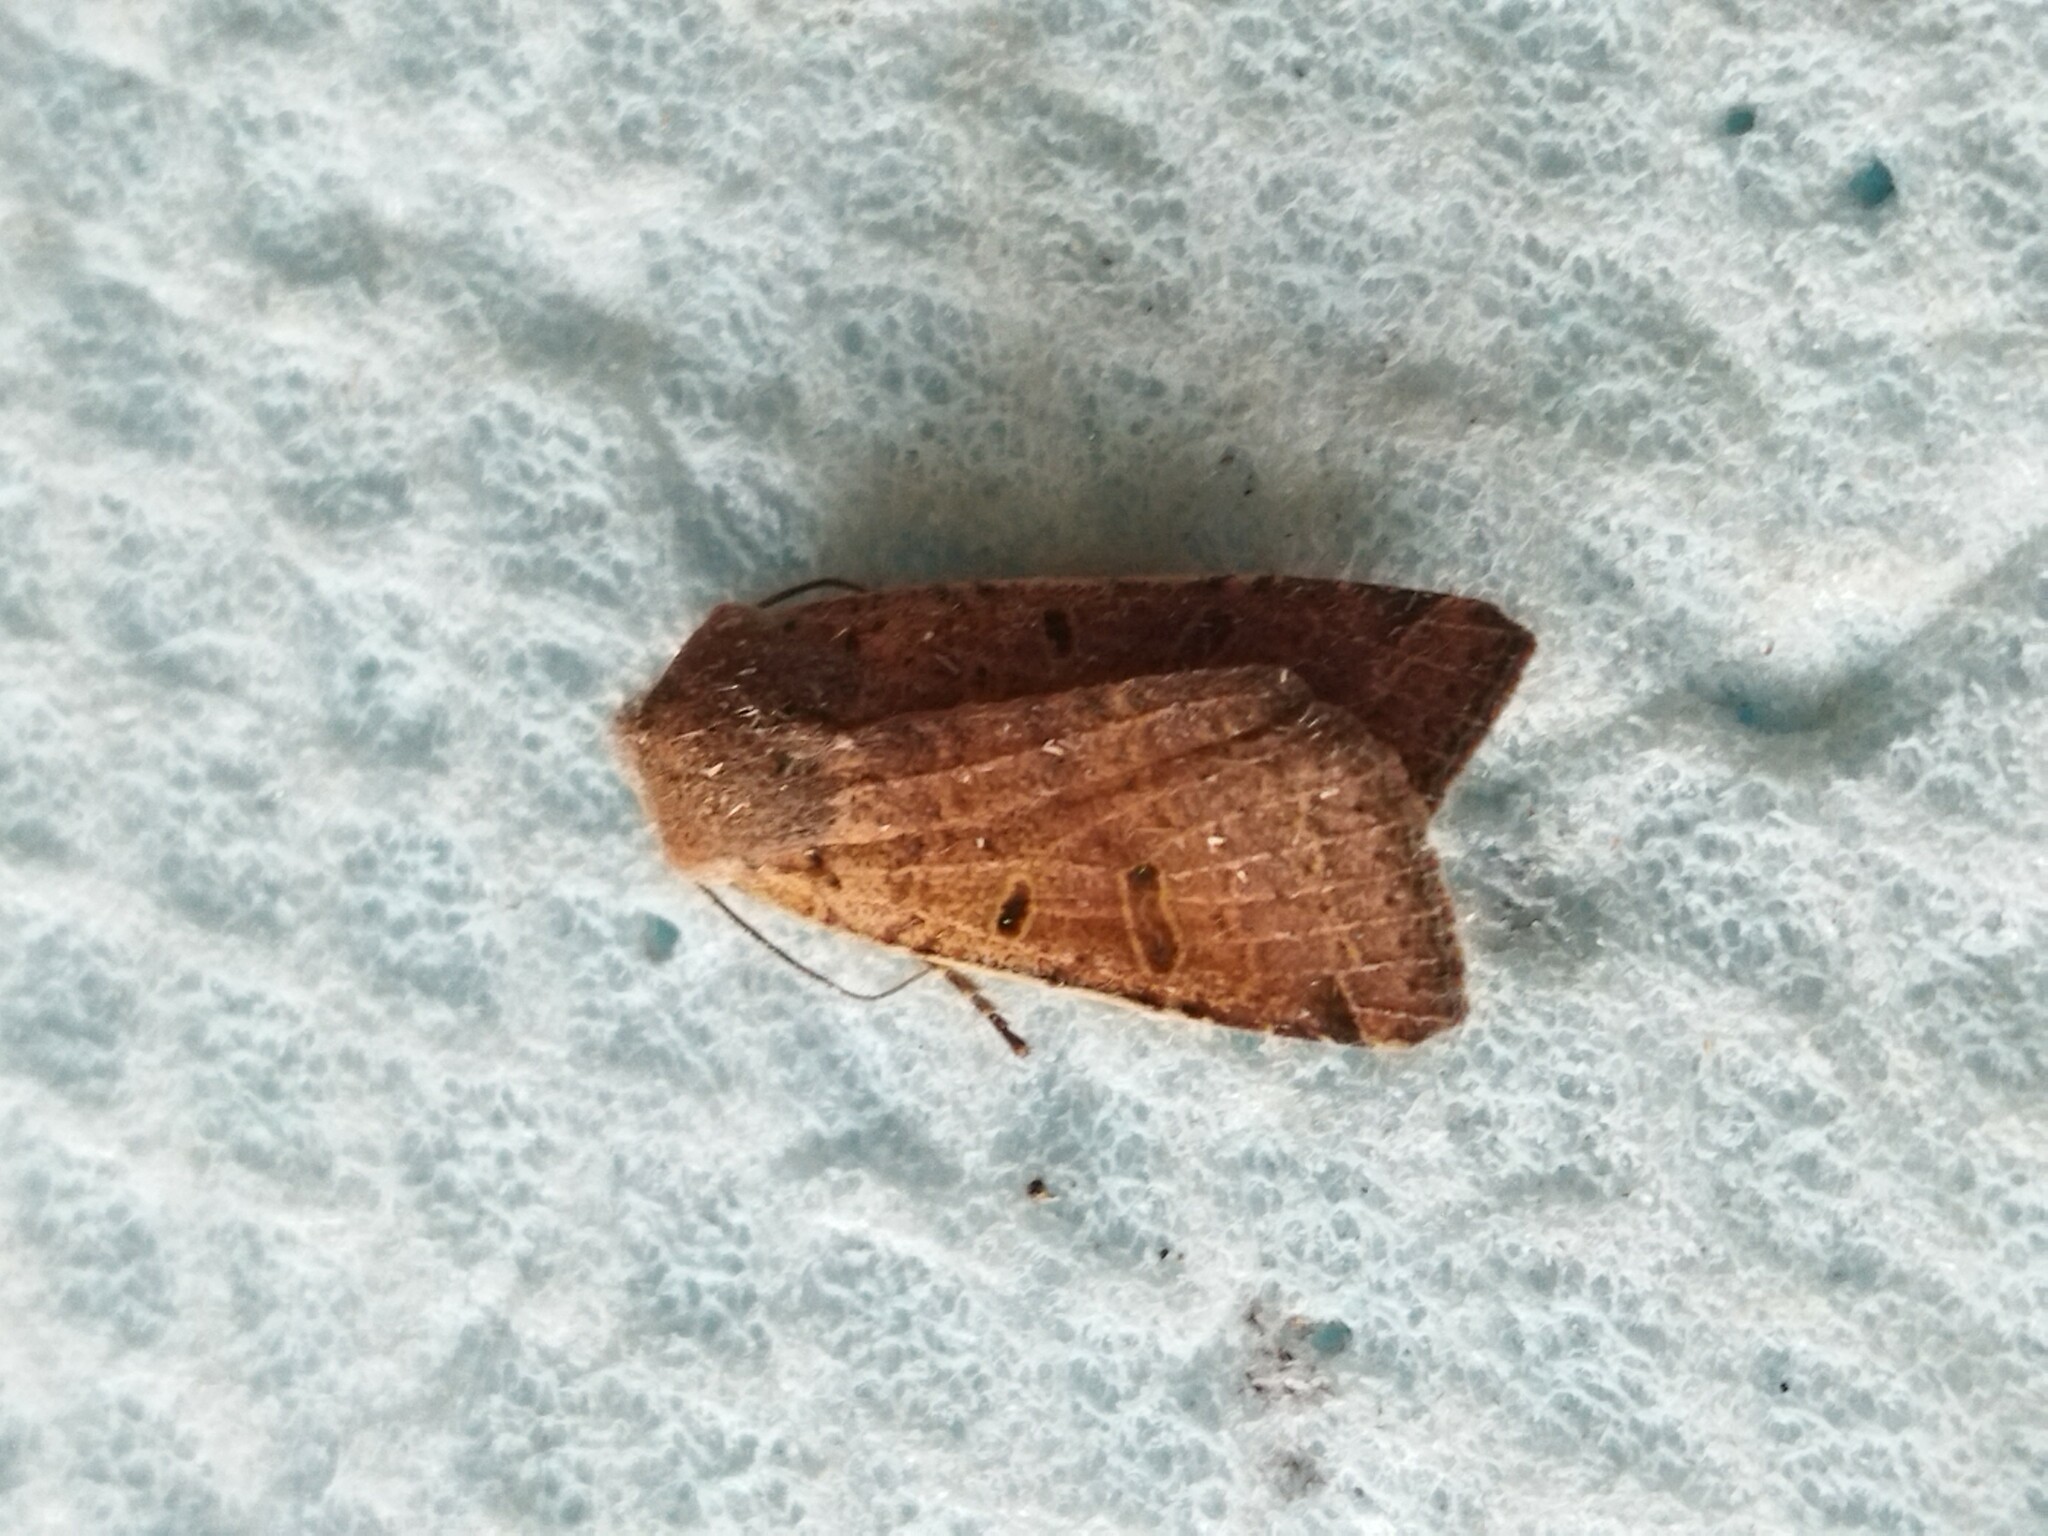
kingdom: Animalia
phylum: Arthropoda
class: Insecta
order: Lepidoptera
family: Noctuidae
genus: Agrochola
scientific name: Agrochola lychnidis
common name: Beaded chestnut
